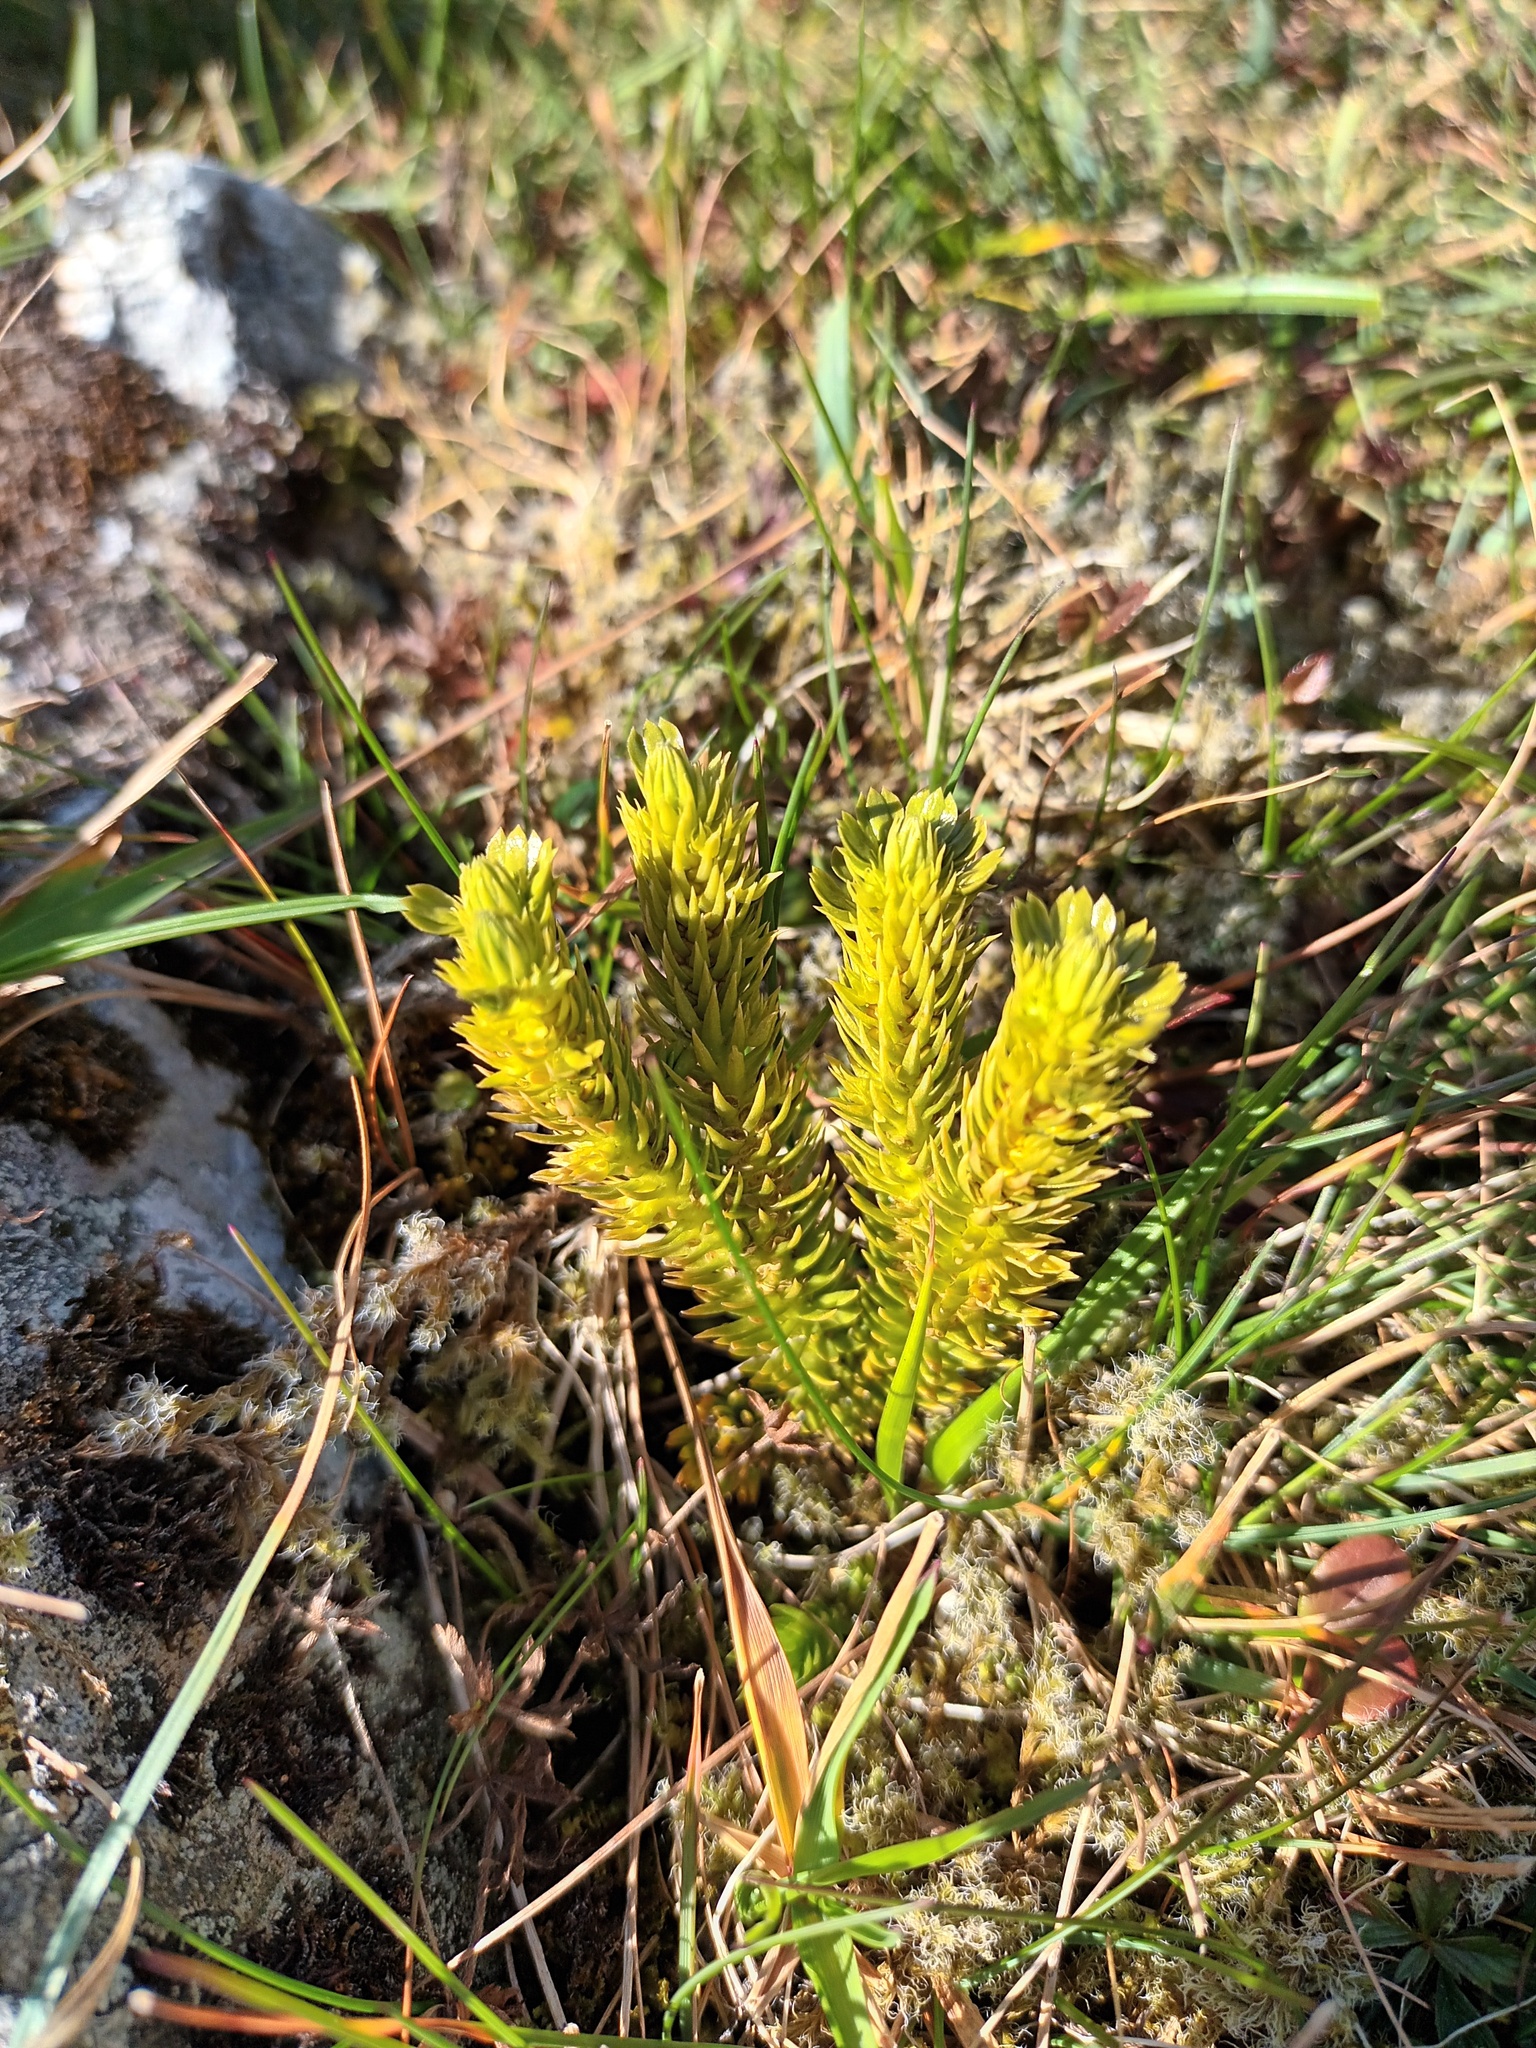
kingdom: Plantae
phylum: Tracheophyta
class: Lycopodiopsida
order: Lycopodiales
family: Lycopodiaceae
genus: Huperzia
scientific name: Huperzia selago
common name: Northern firmoss
